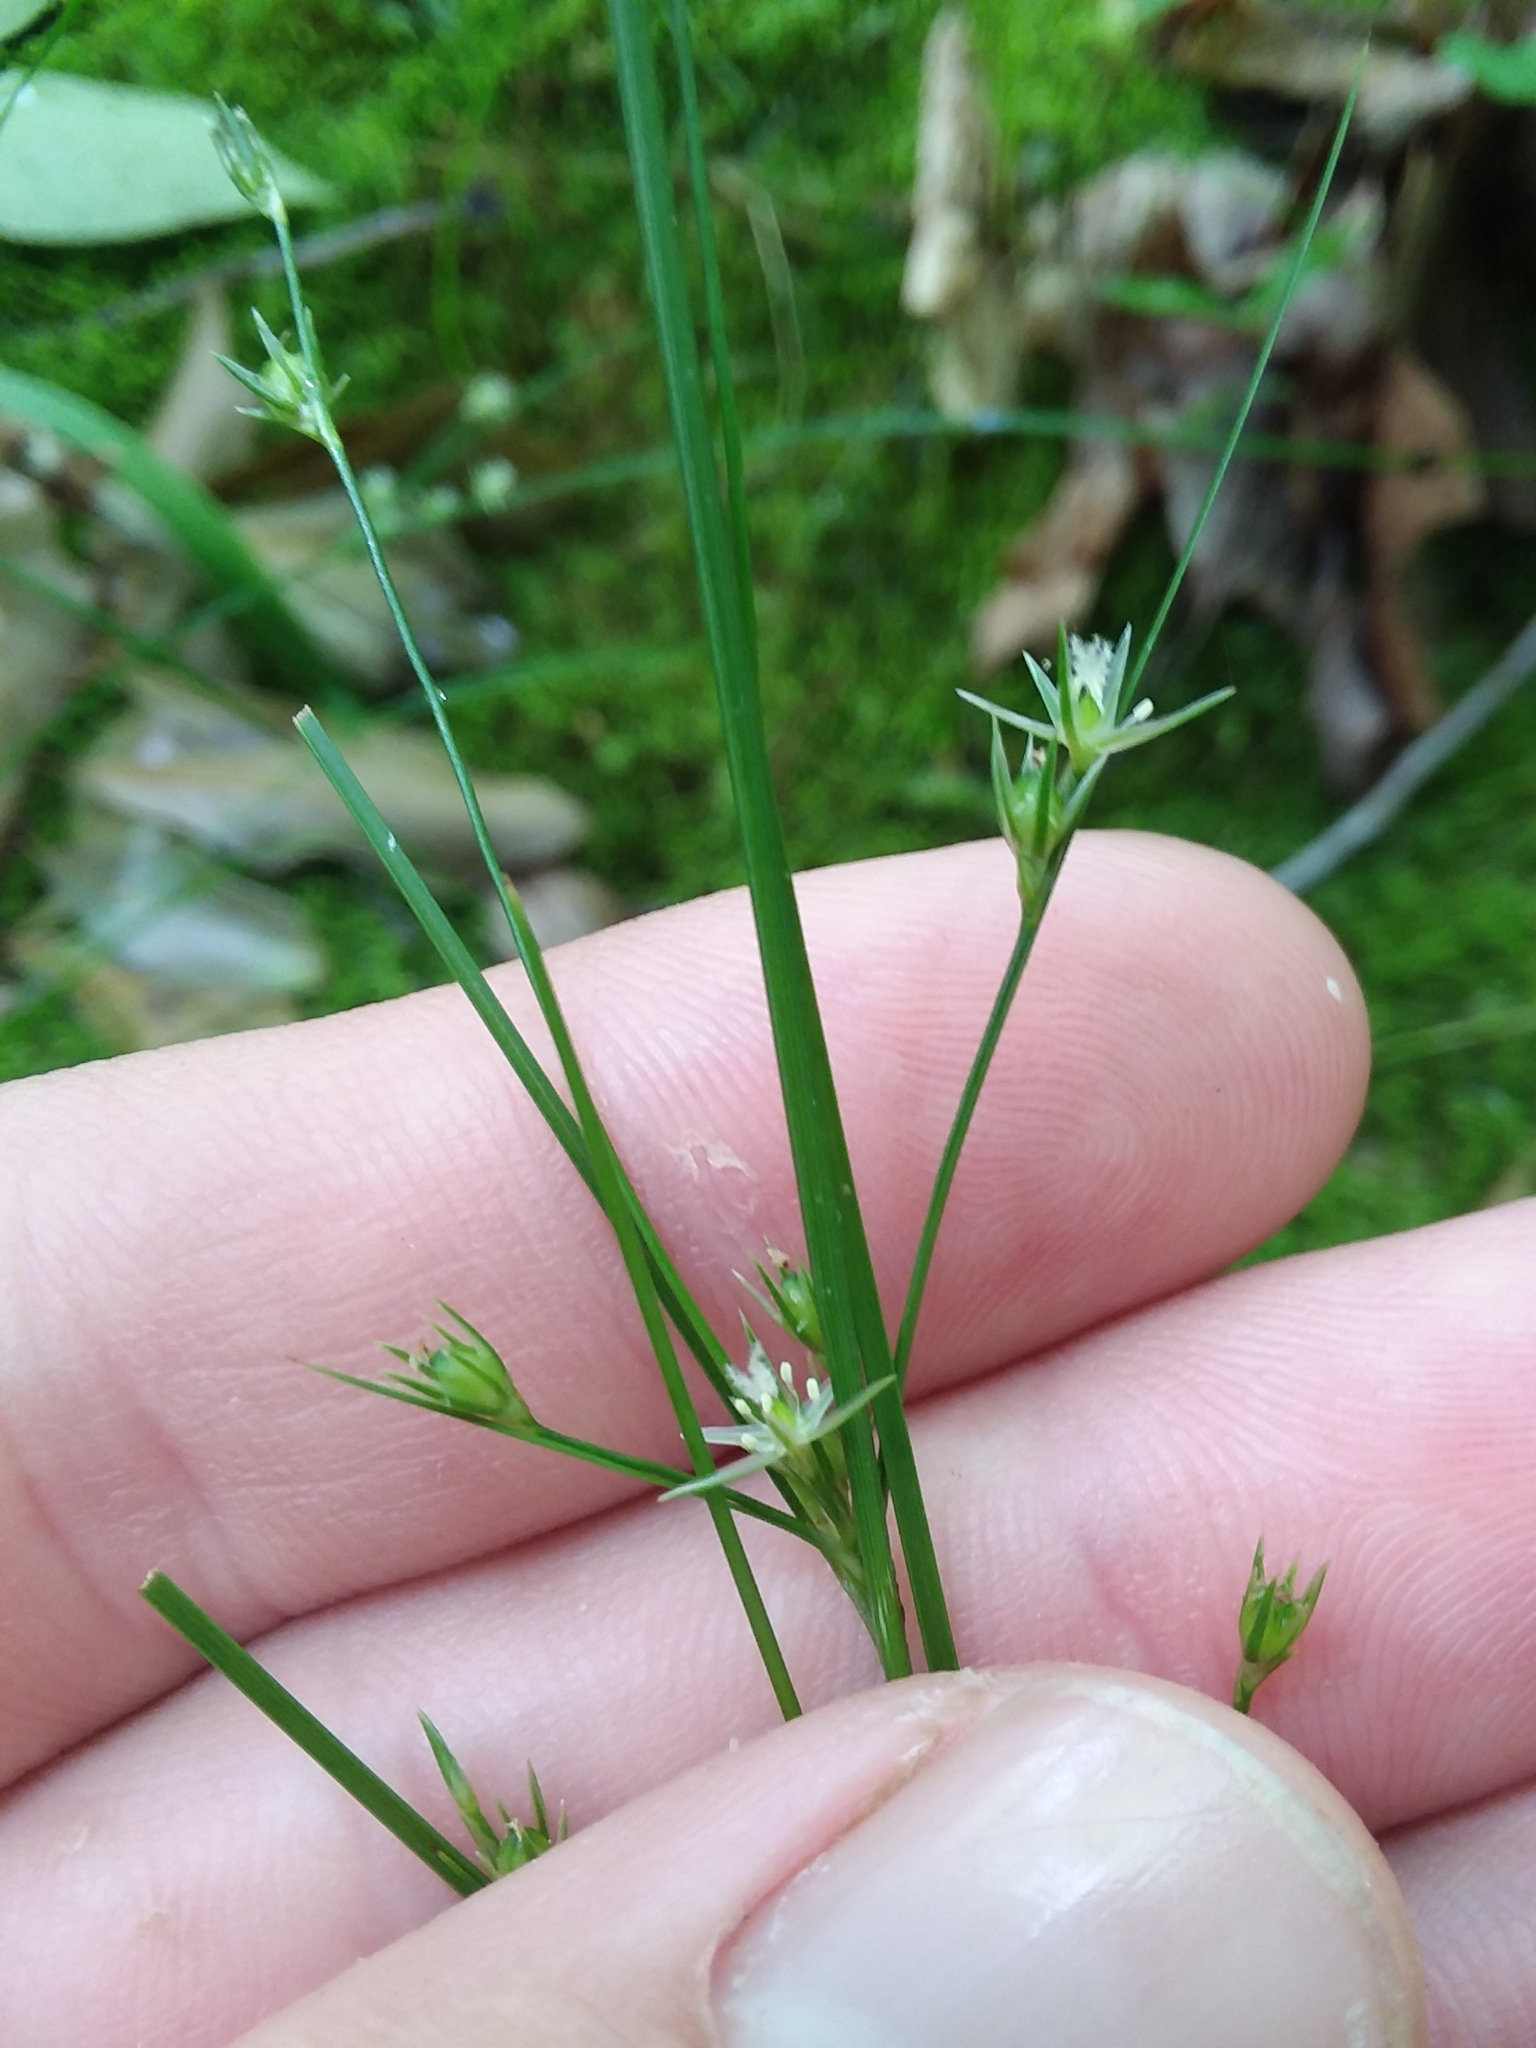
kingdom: Plantae
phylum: Tracheophyta
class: Liliopsida
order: Poales
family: Juncaceae
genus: Juncus
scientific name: Juncus tenuis
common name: Slender rush
